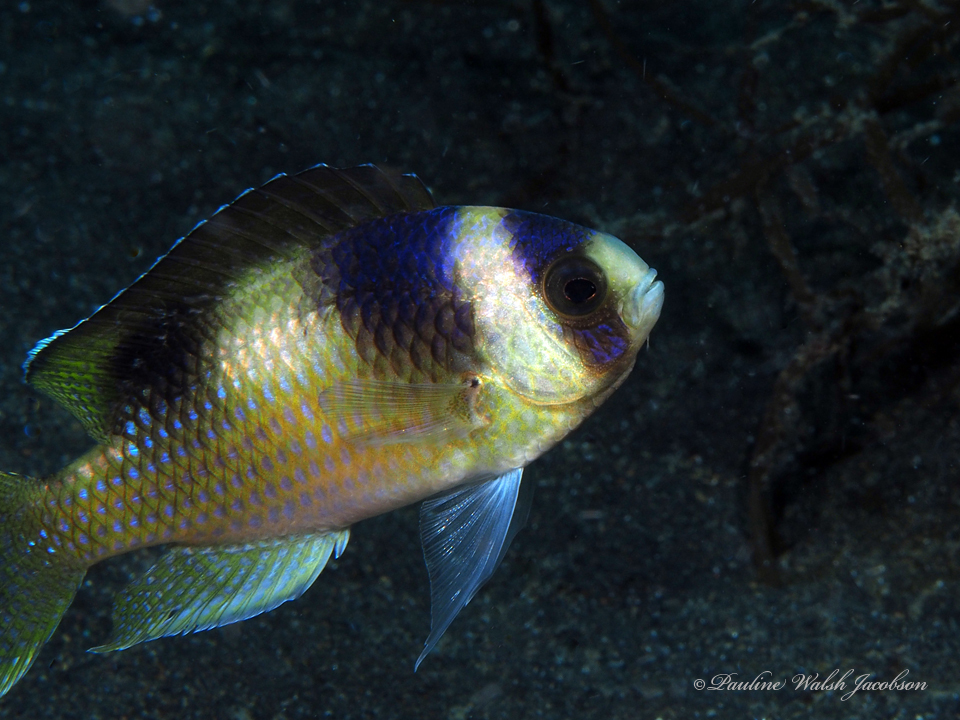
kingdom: Animalia
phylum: Chordata
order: Perciformes
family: Pomacentridae
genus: Amblypomacentrus
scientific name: Amblypomacentrus breviceps
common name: Black-banded demoiselle
